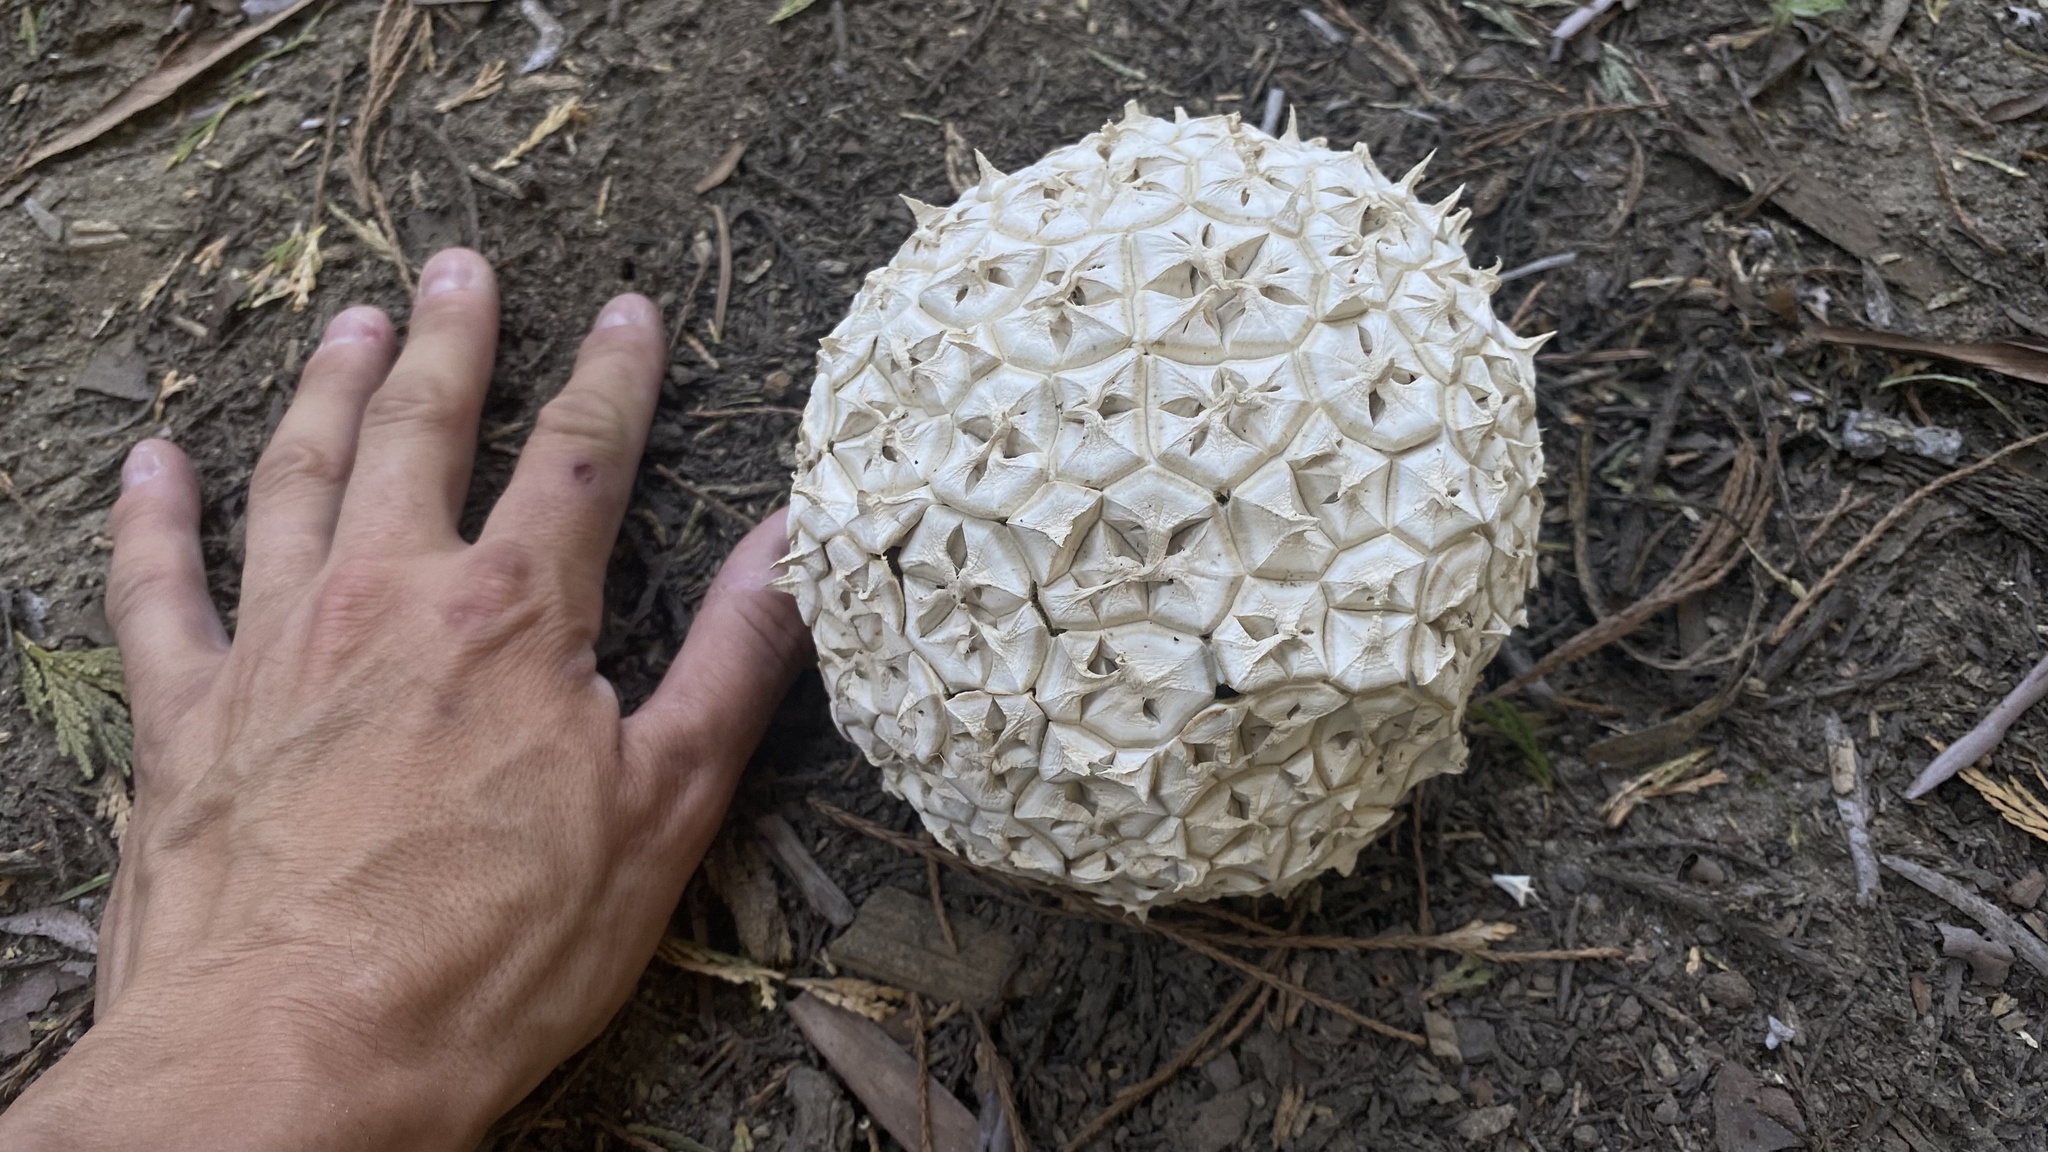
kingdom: Fungi
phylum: Basidiomycota
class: Agaricomycetes
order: Agaricales
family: Lycoperdaceae
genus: Calvatia
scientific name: Calvatia sculpta
